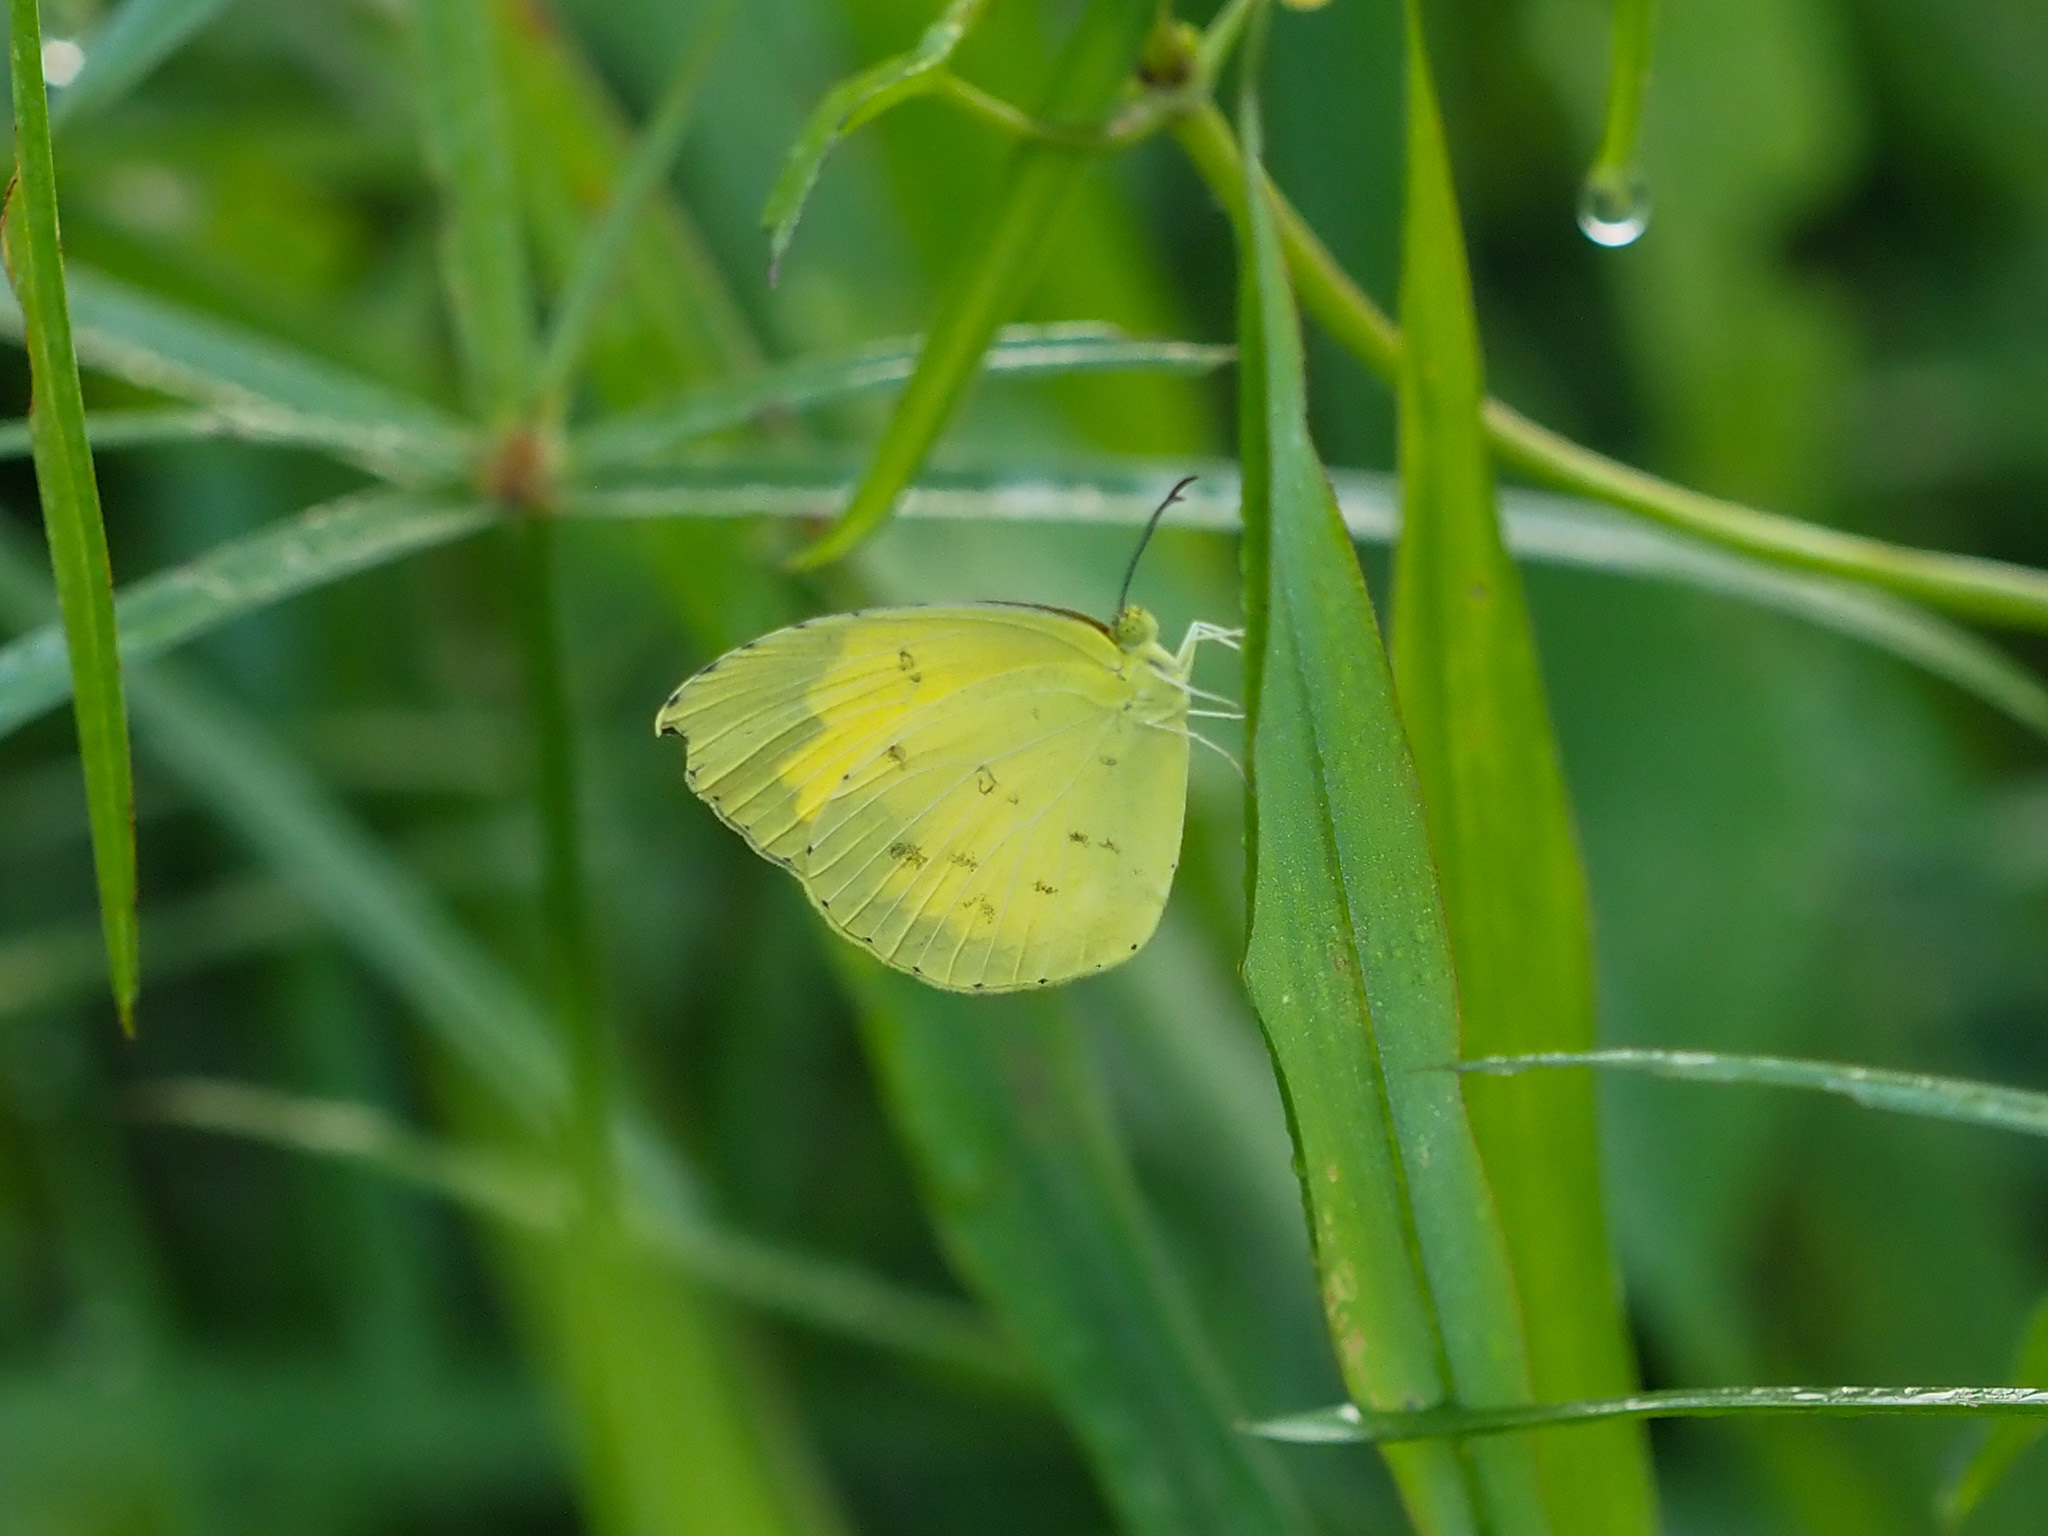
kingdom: Animalia
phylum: Arthropoda
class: Insecta
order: Lepidoptera
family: Pieridae
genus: Eurema
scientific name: Eurema hecabe
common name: Pale grass yellow
